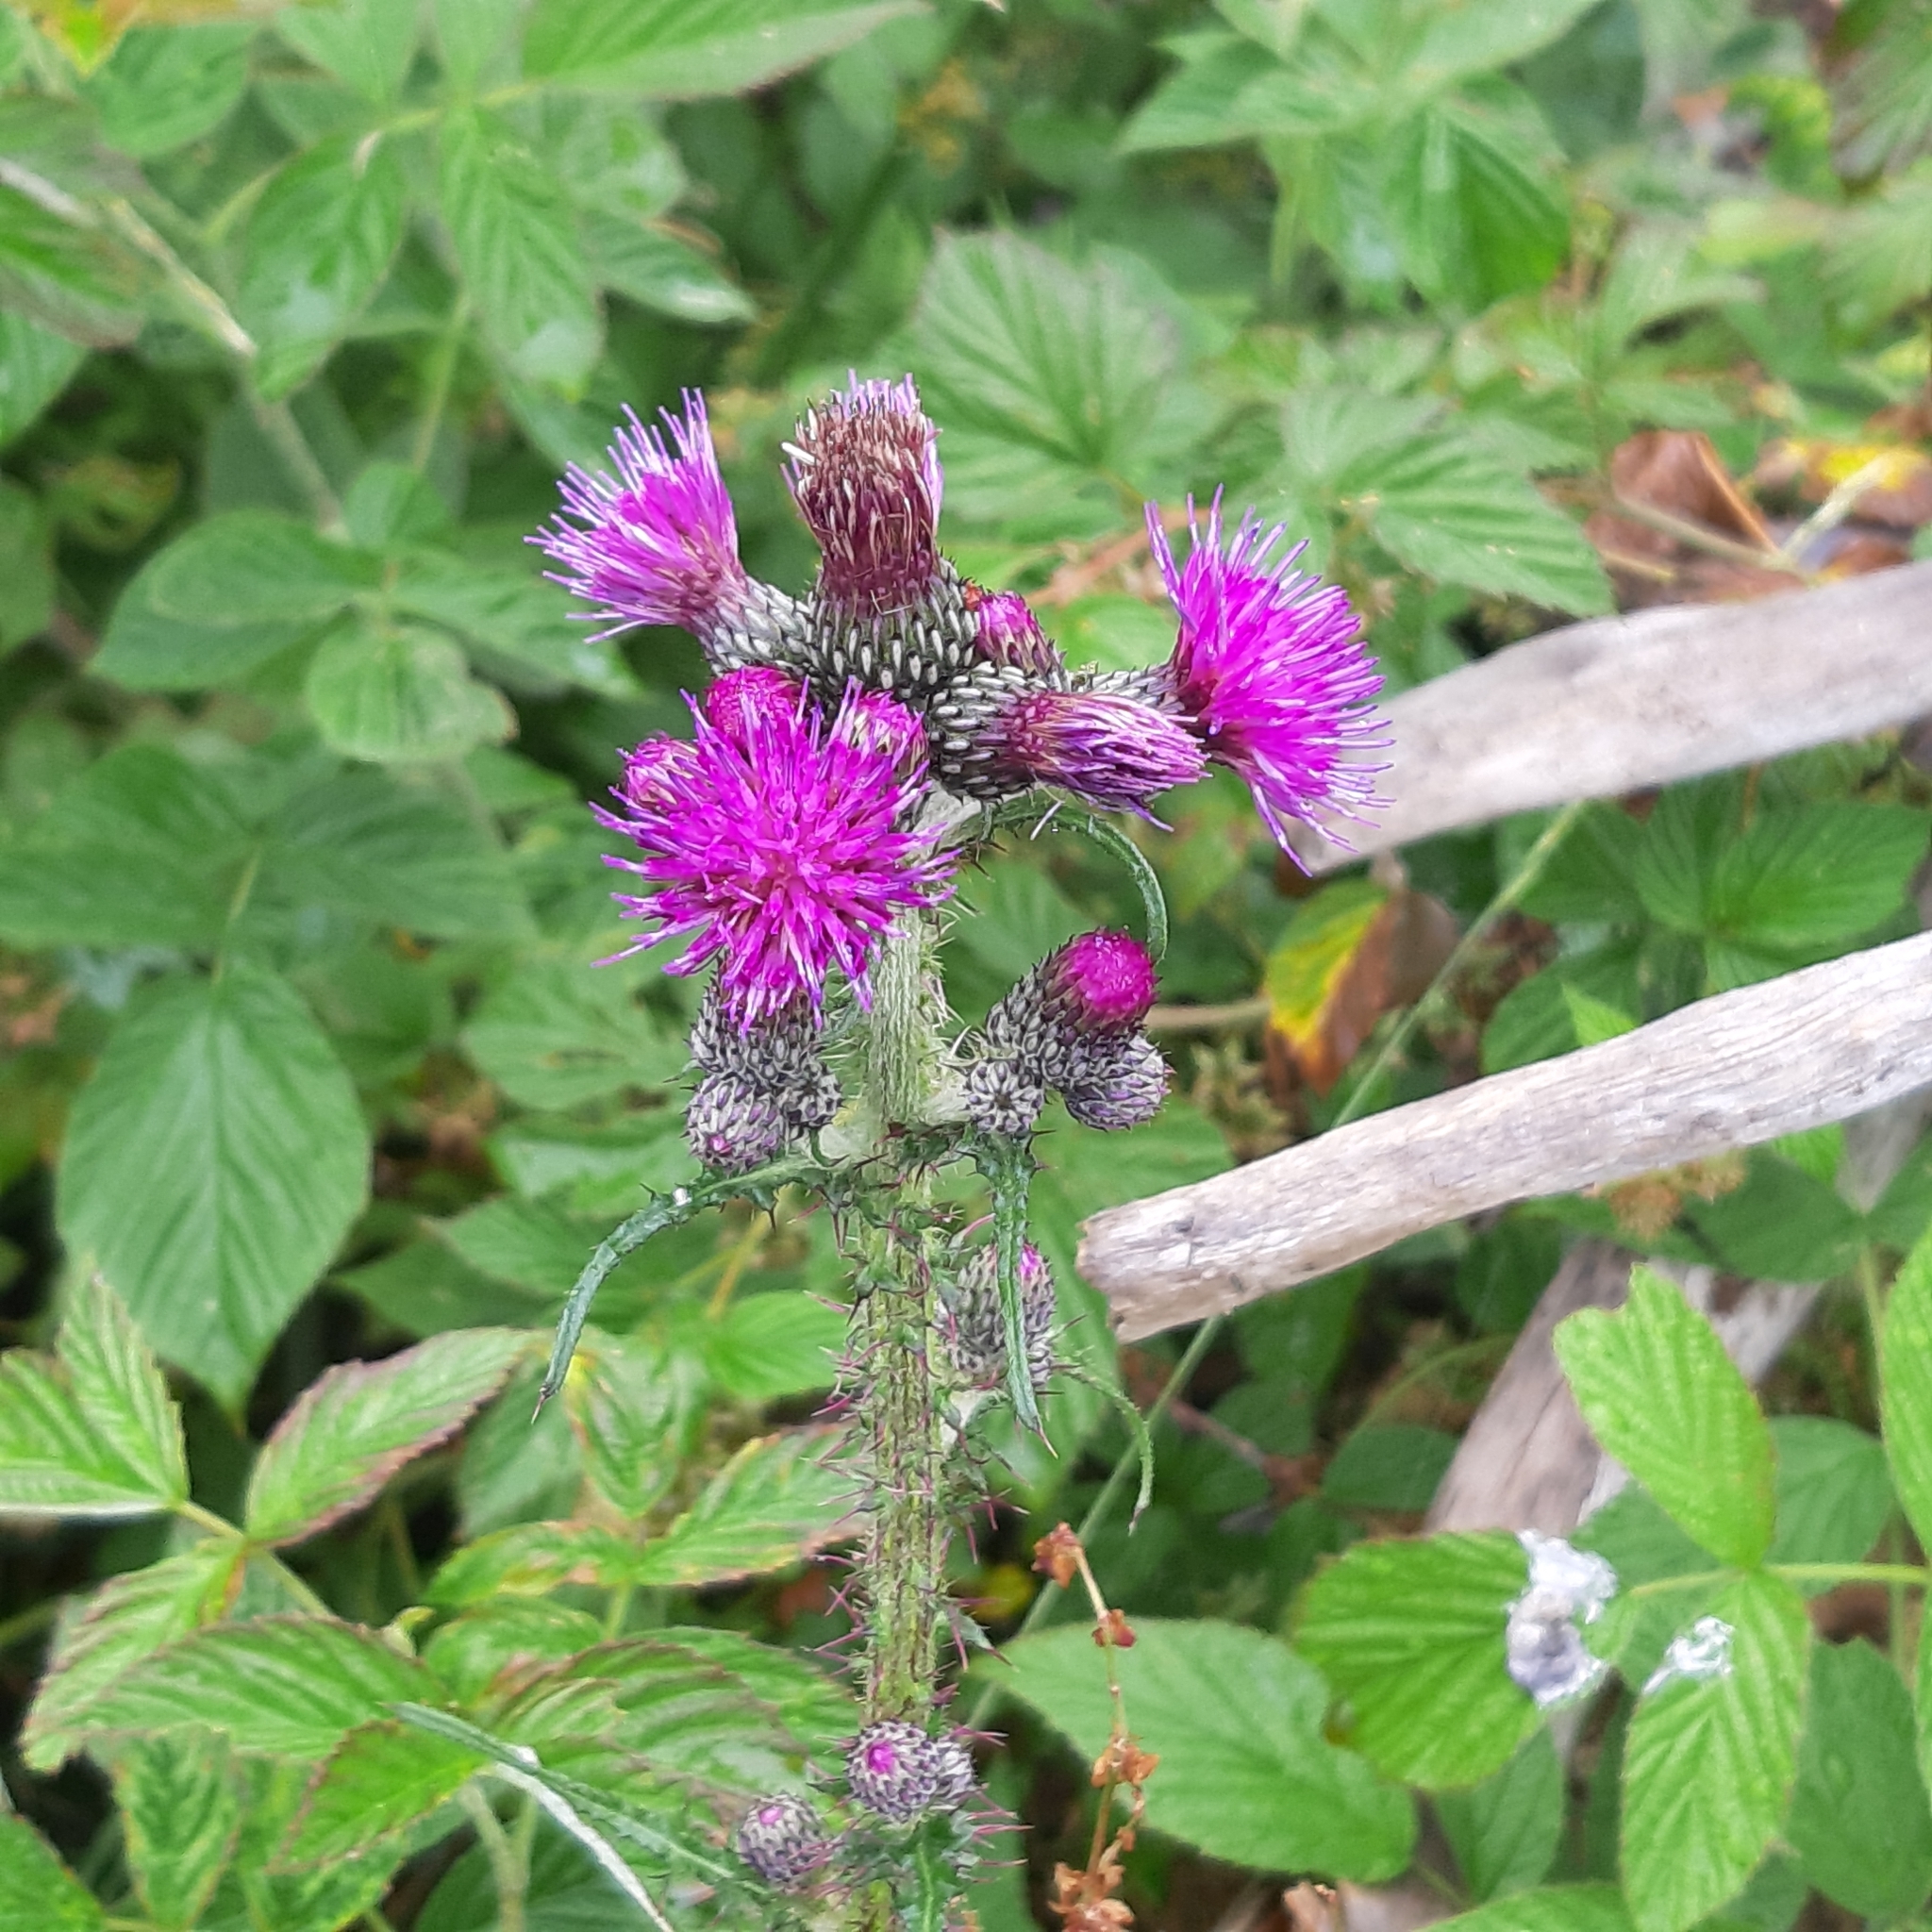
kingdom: Plantae
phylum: Tracheophyta
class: Magnoliopsida
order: Asterales
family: Asteraceae
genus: Cirsium
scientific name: Cirsium palustre
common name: Marsh thistle
